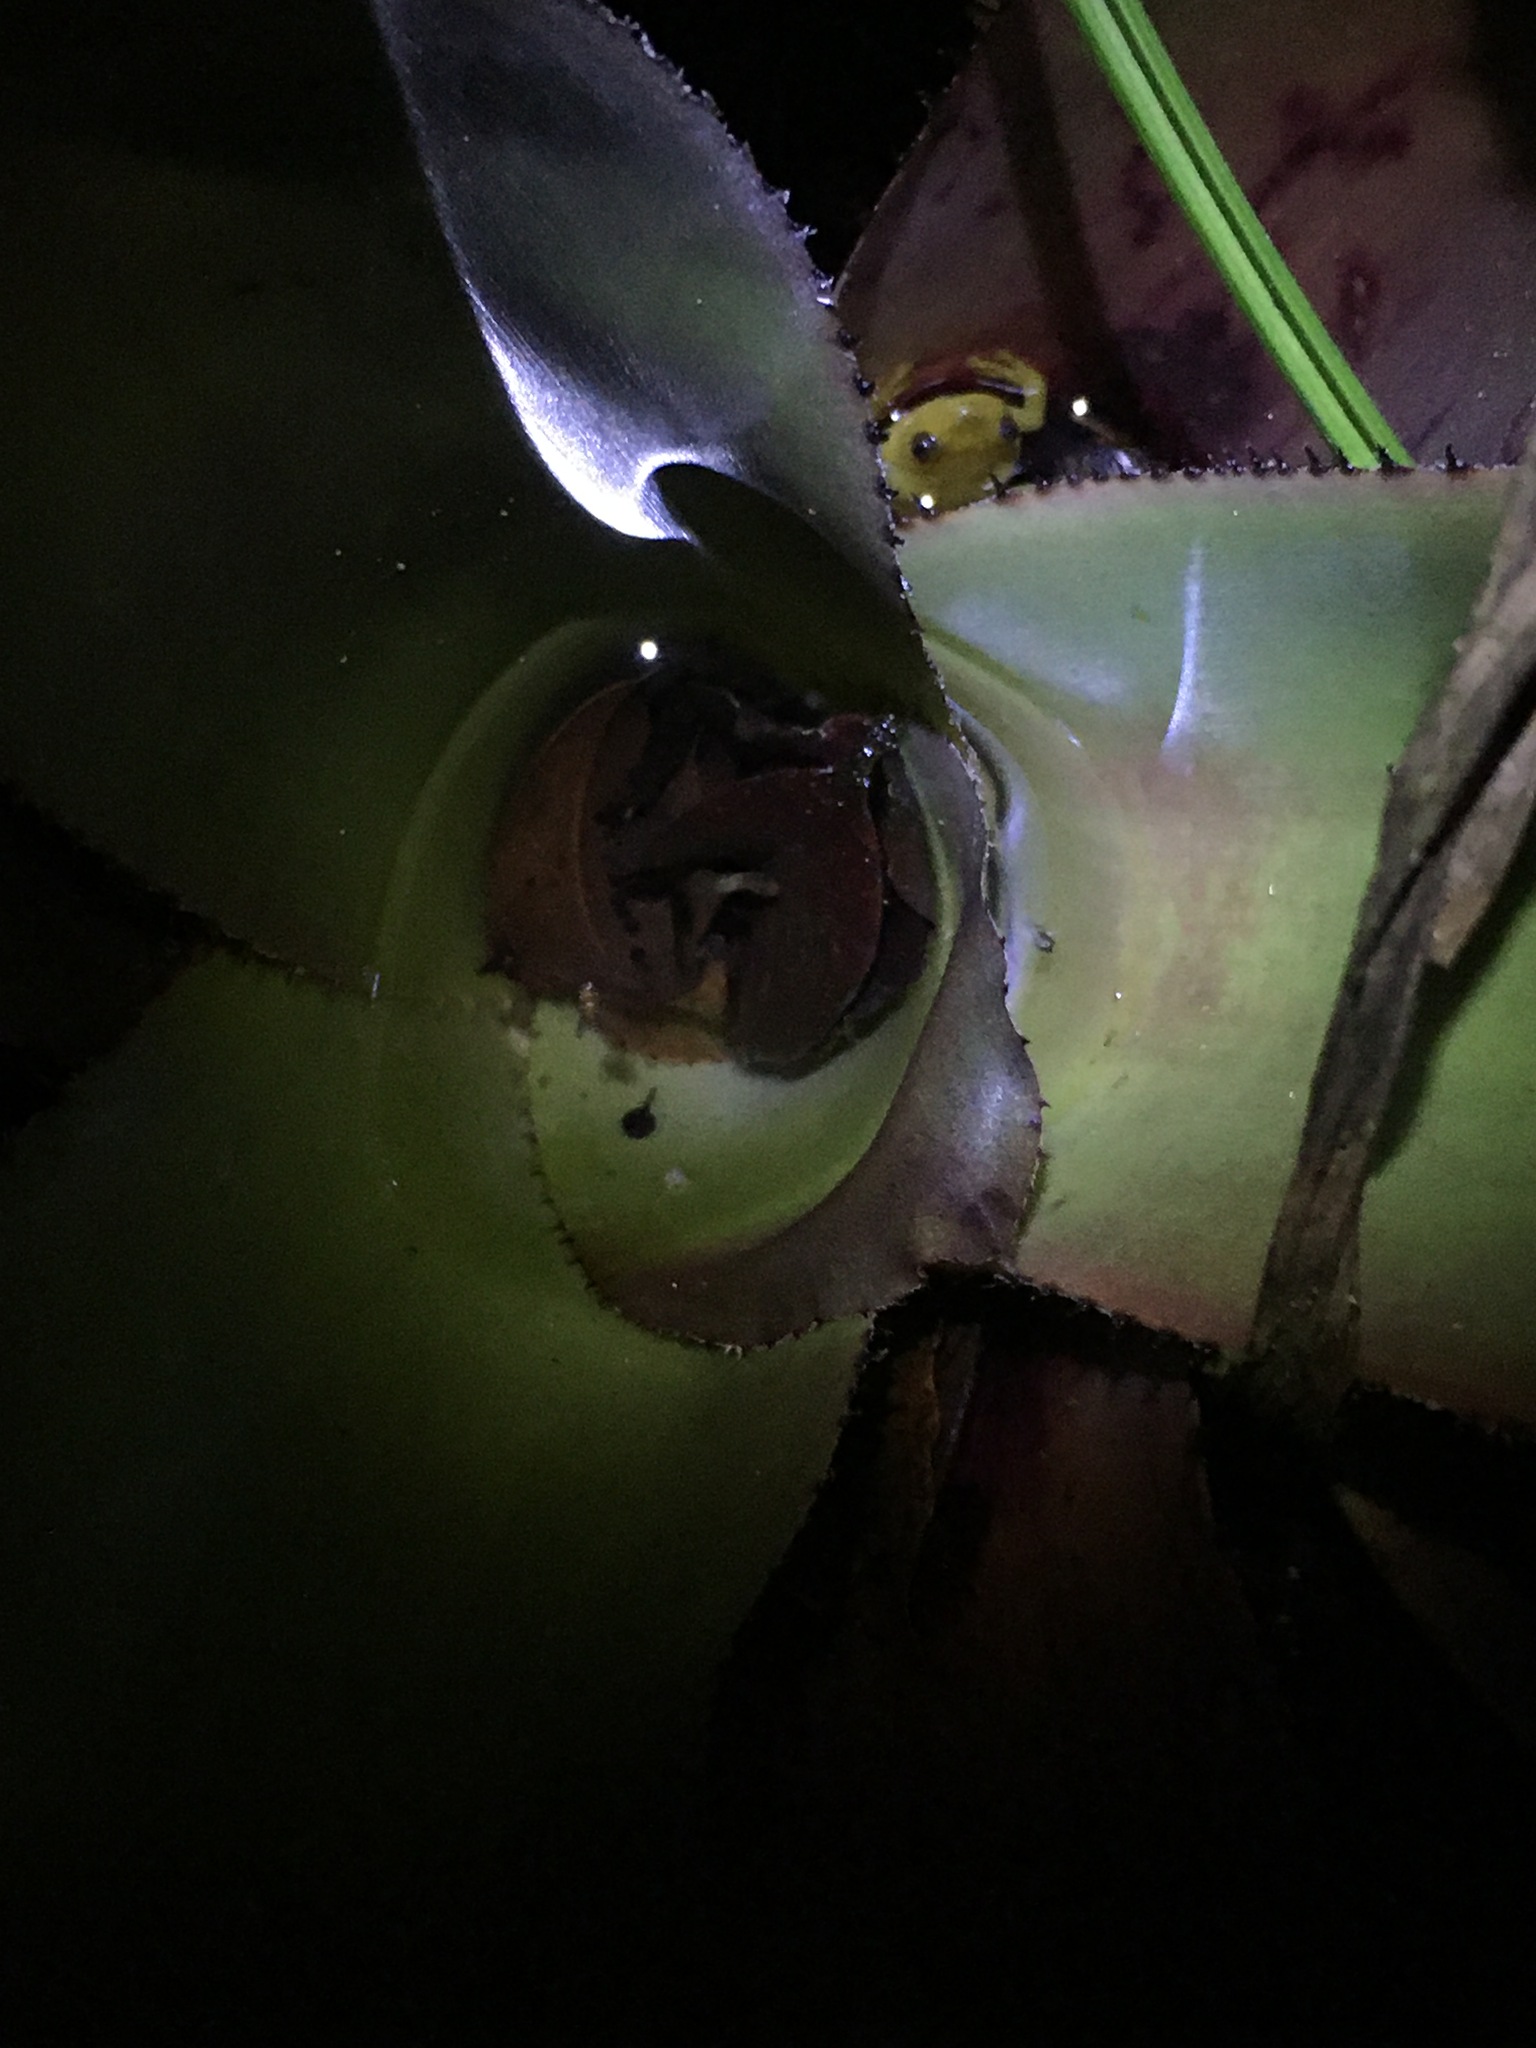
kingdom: Animalia
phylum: Chordata
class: Amphibia
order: Anura
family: Hylidae
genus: Phyllodytes
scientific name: Phyllodytes edelmoi
